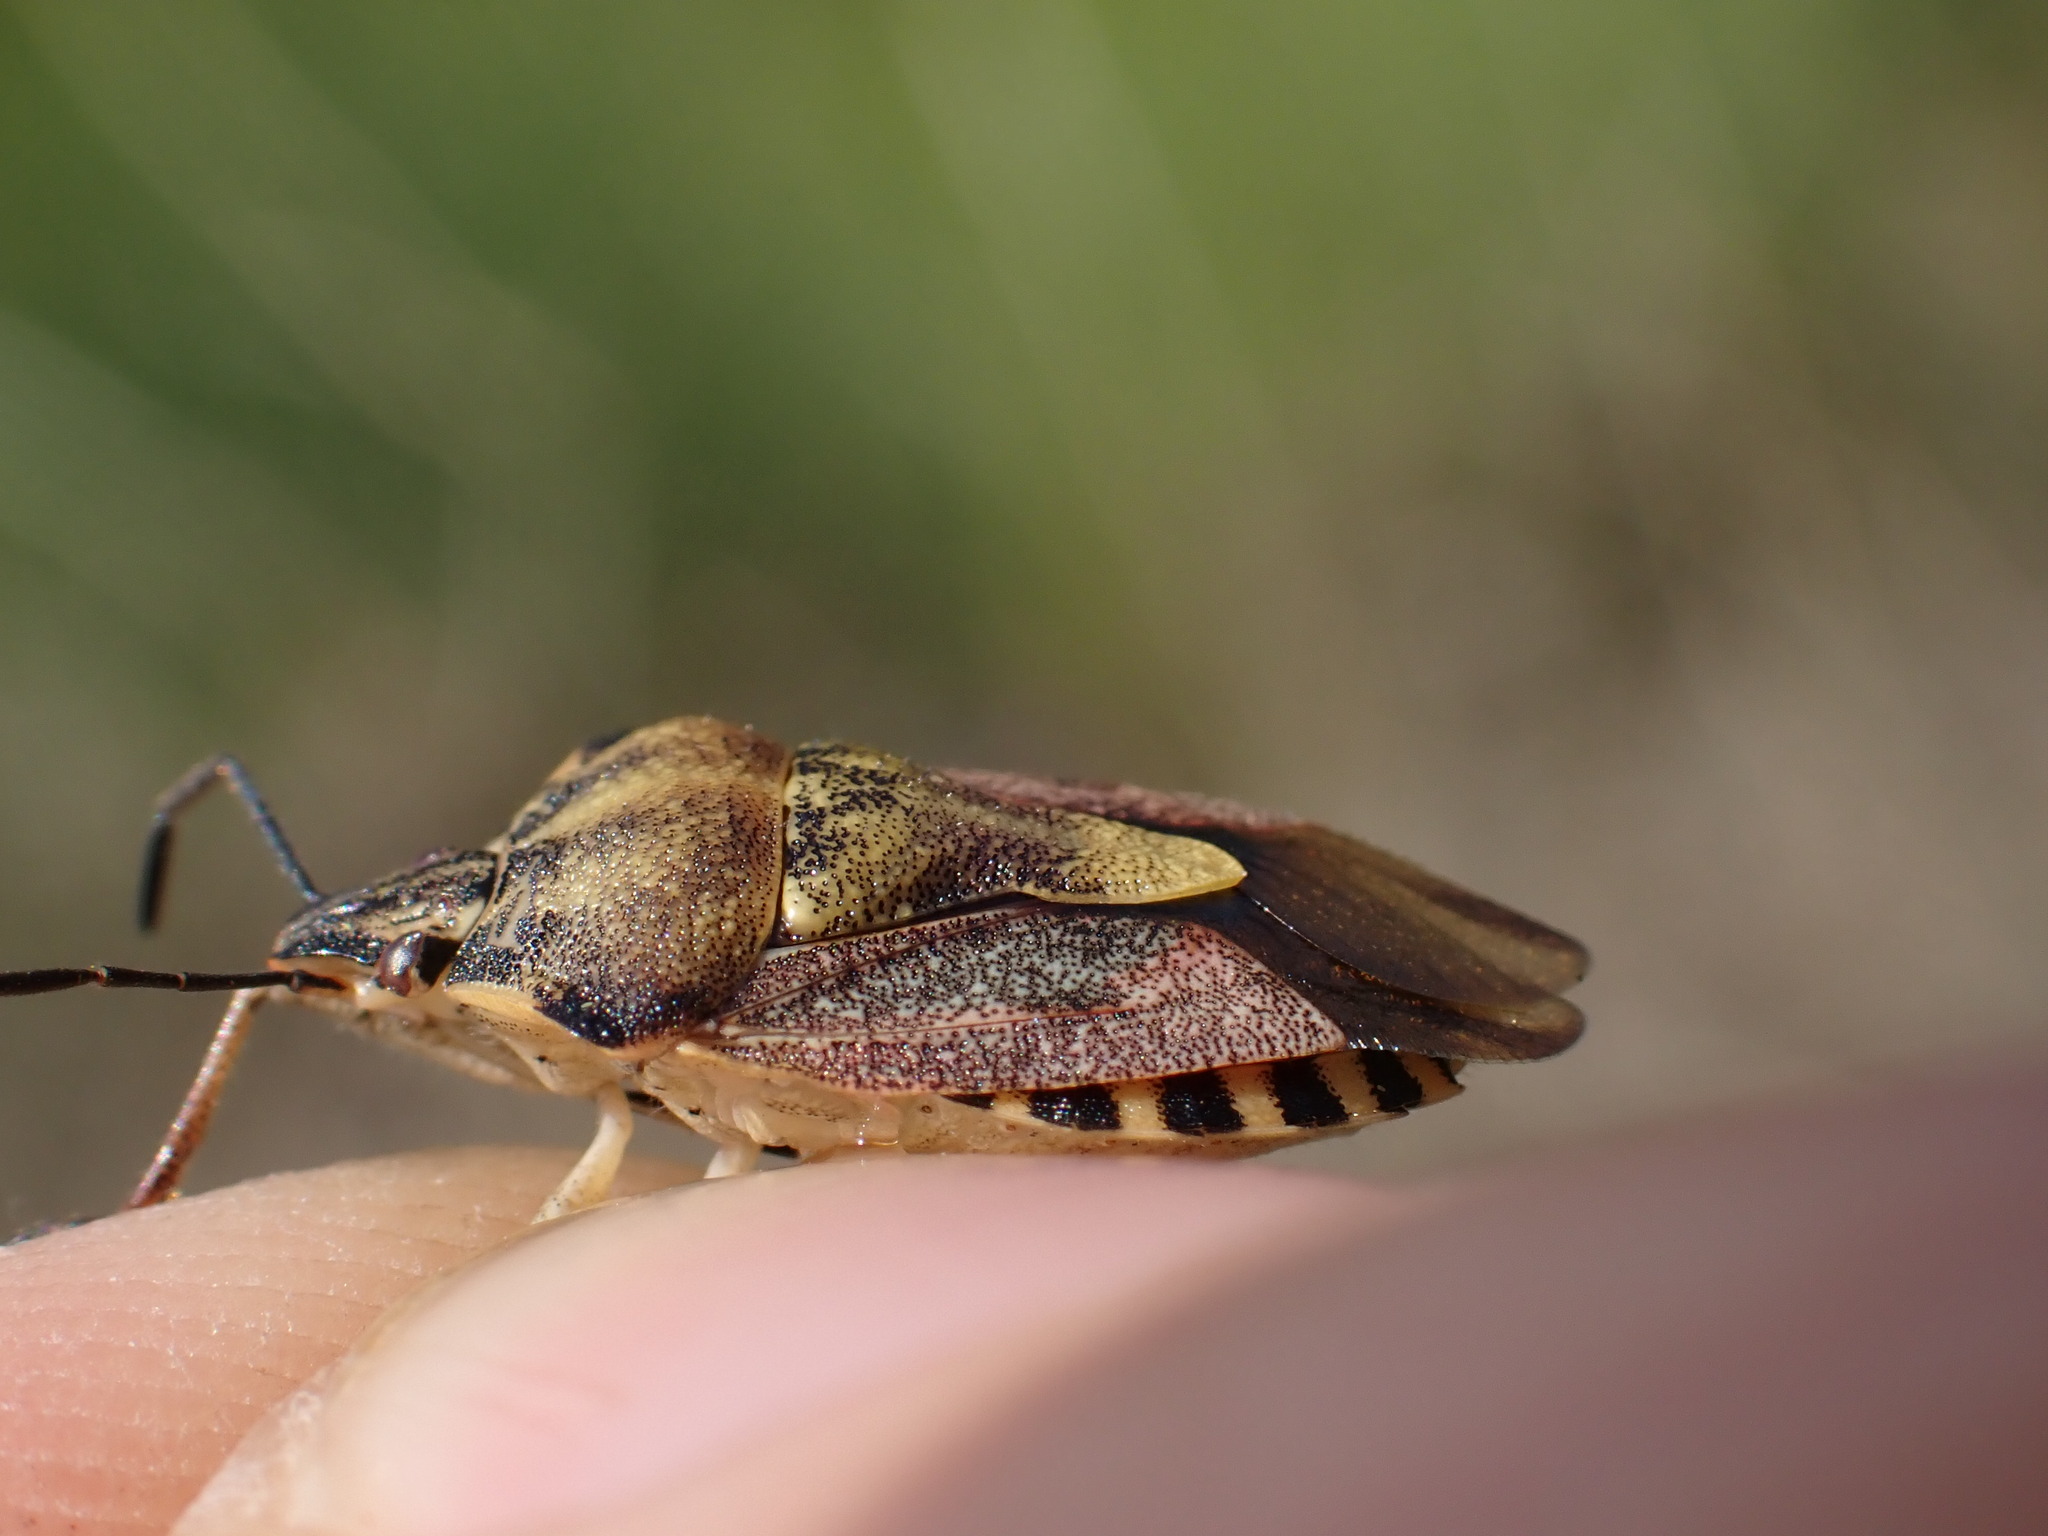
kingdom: Animalia
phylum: Arthropoda
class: Insecta
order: Hemiptera
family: Pentatomidae
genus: Carpocoris
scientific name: Carpocoris purpureipennis
